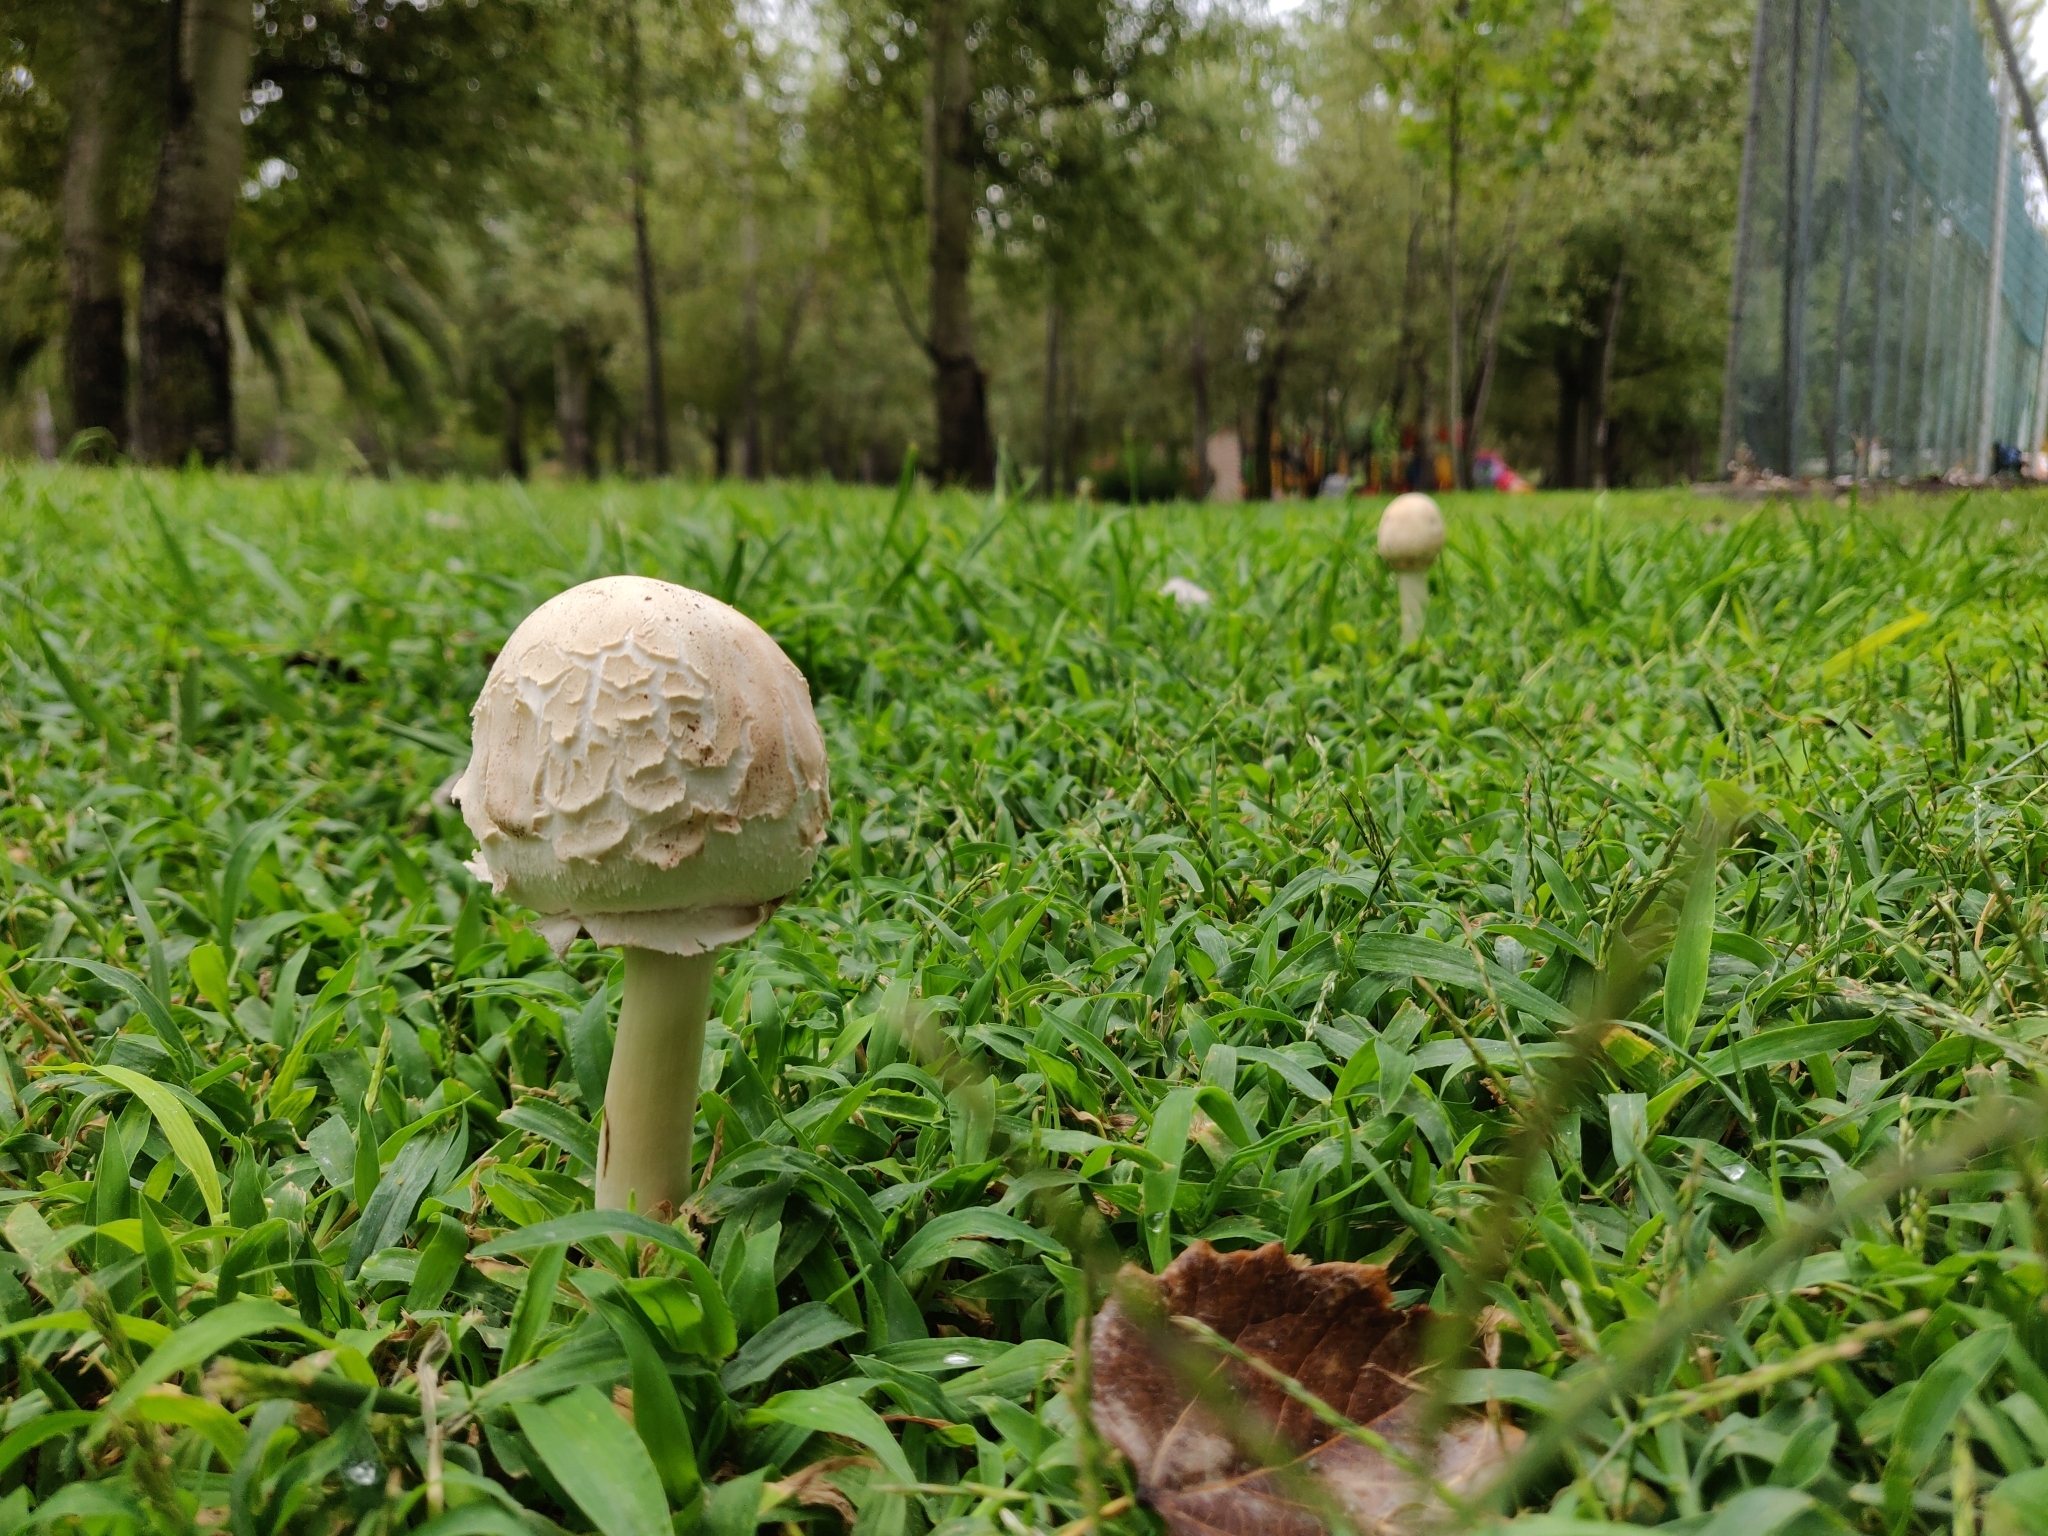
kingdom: Fungi
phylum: Basidiomycota
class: Agaricomycetes
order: Agaricales
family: Agaricaceae
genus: Chlorophyllum
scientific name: Chlorophyllum molybdites
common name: False parasol
